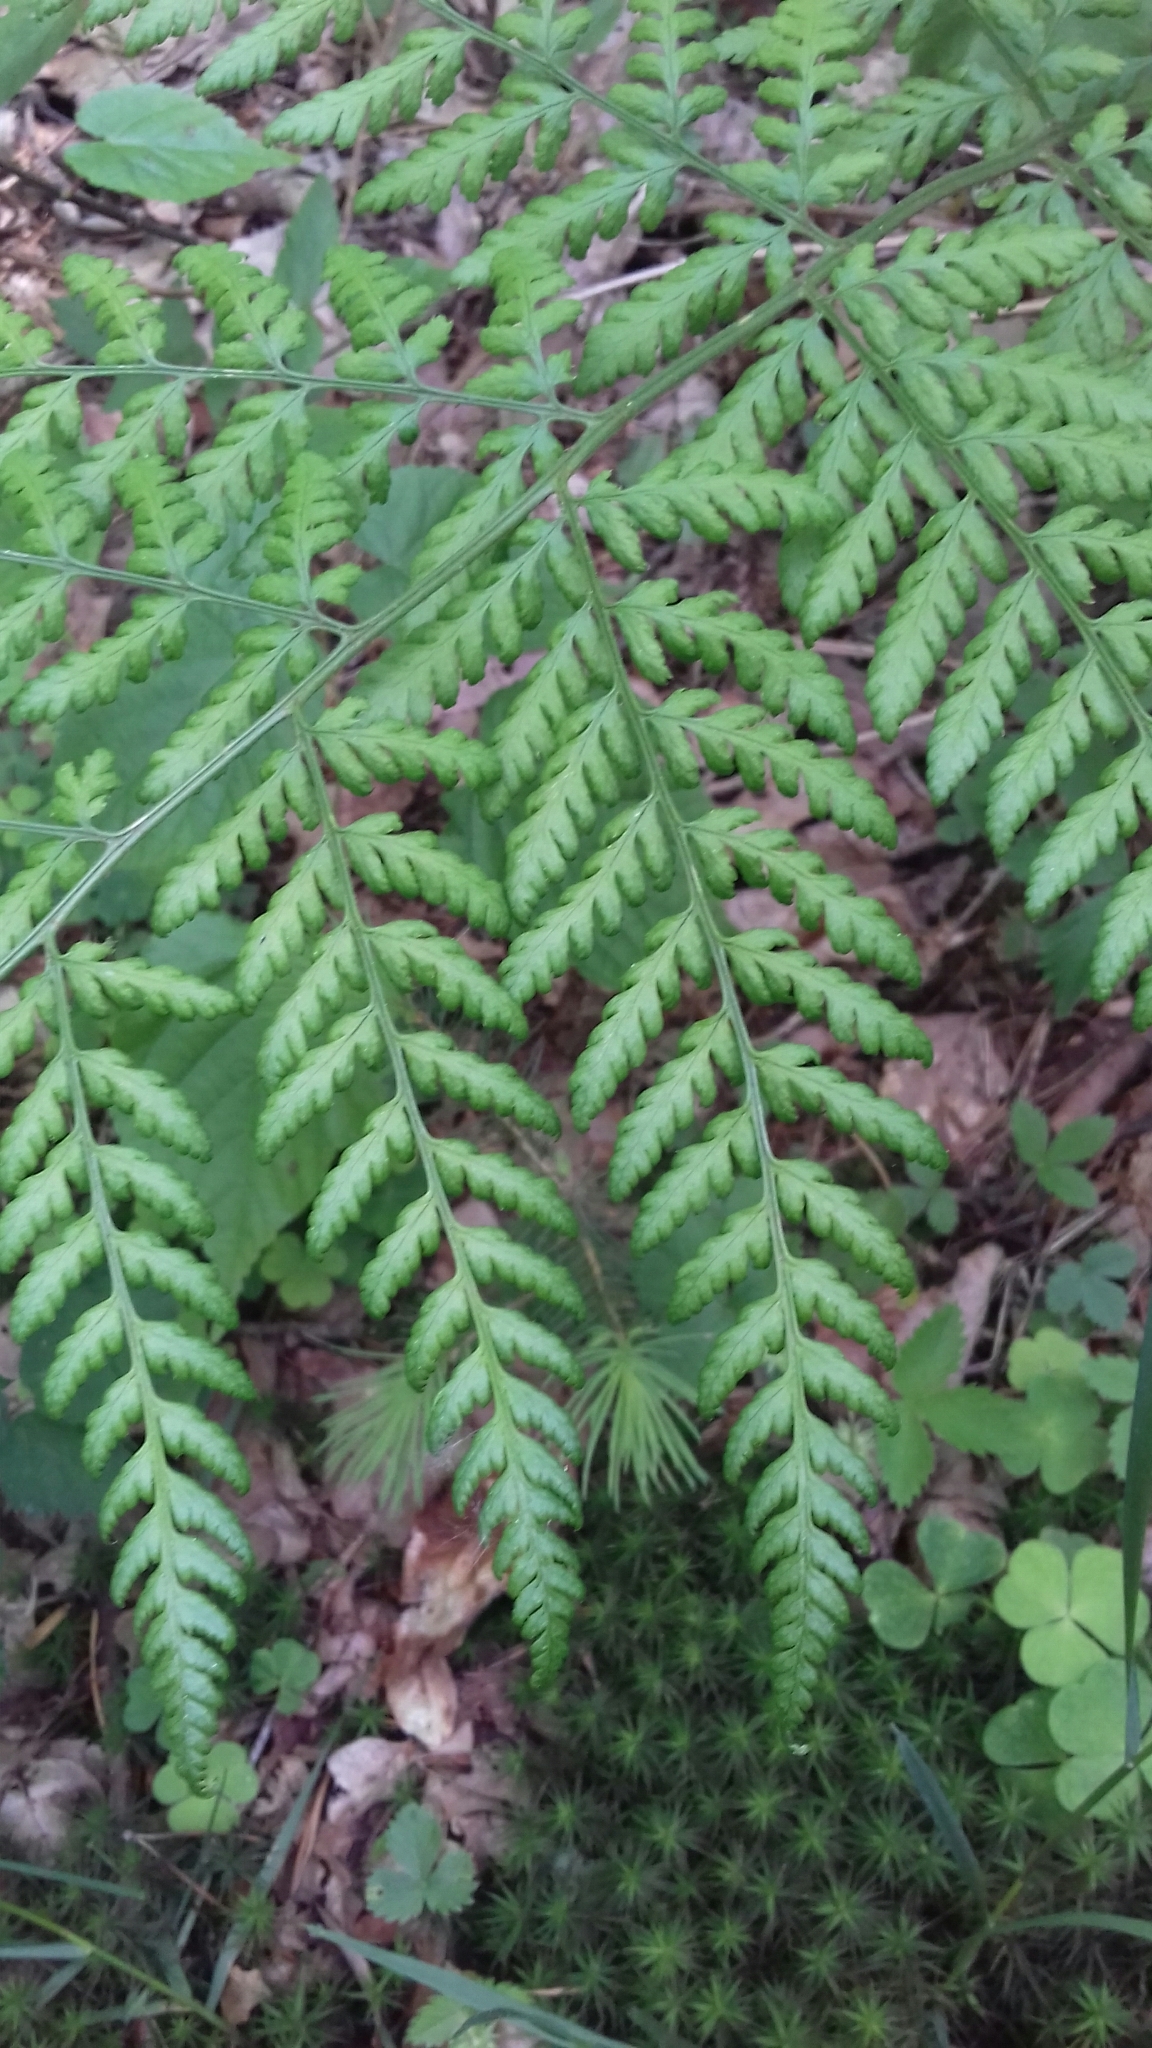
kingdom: Plantae
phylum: Tracheophyta
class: Polypodiopsida
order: Polypodiales
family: Dryopteridaceae
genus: Dryopteris
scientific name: Dryopteris dilatata
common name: Broad buckler-fern
